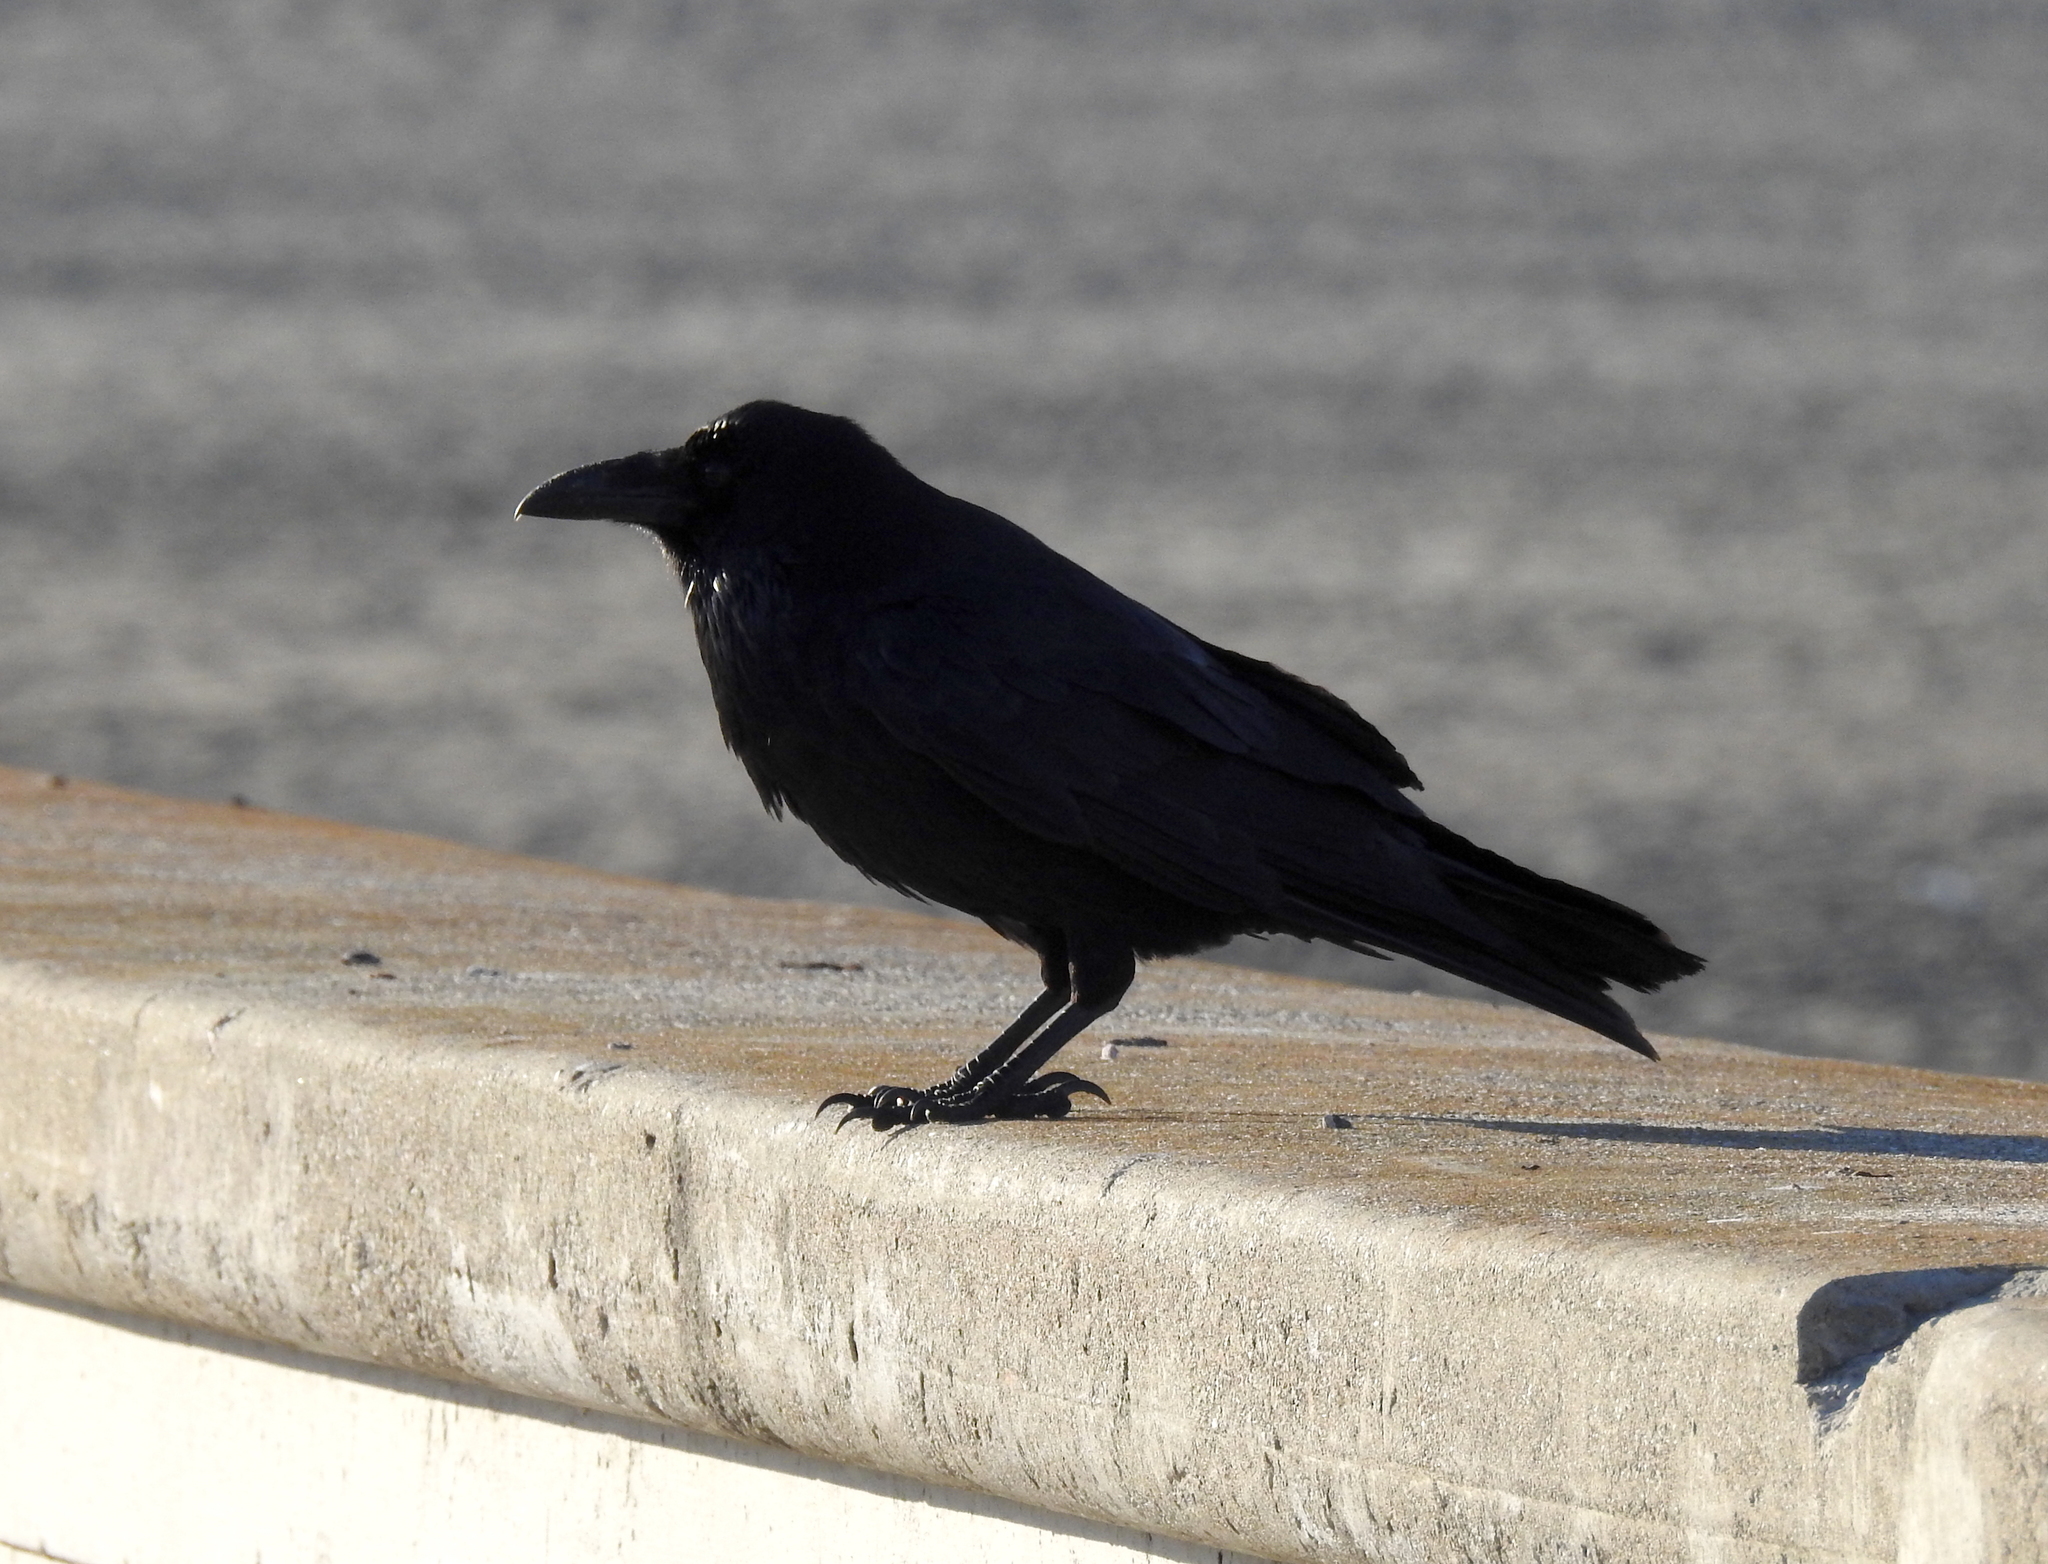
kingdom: Animalia
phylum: Chordata
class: Aves
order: Passeriformes
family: Corvidae
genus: Corvus
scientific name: Corvus corax
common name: Common raven
